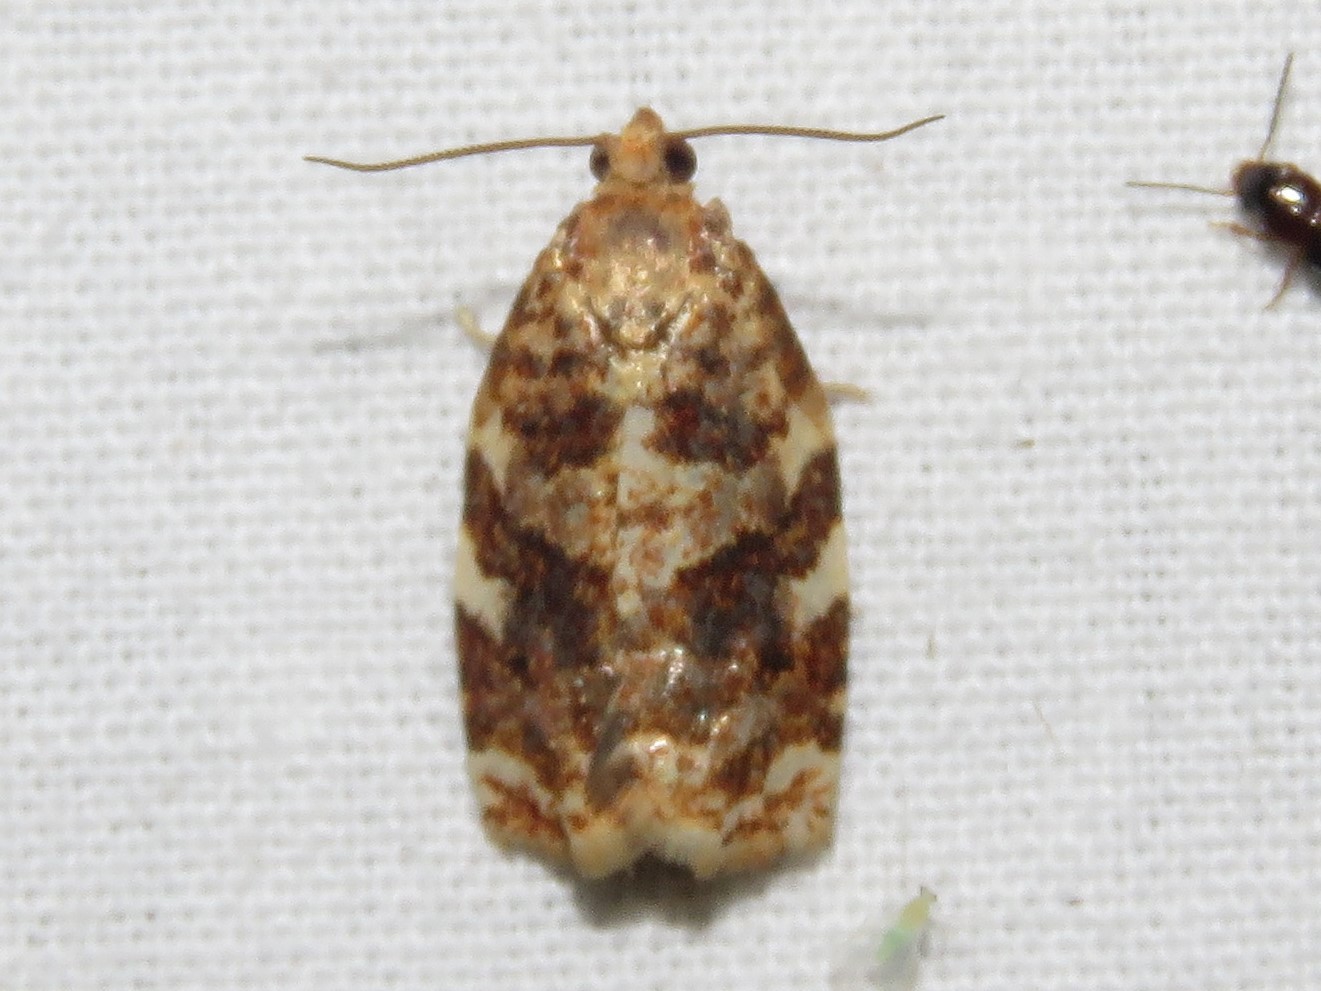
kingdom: Animalia
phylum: Arthropoda
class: Insecta
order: Lepidoptera
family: Tortricidae
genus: Archips
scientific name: Archips argyrospila
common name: Fruit-tree leafroller moth
